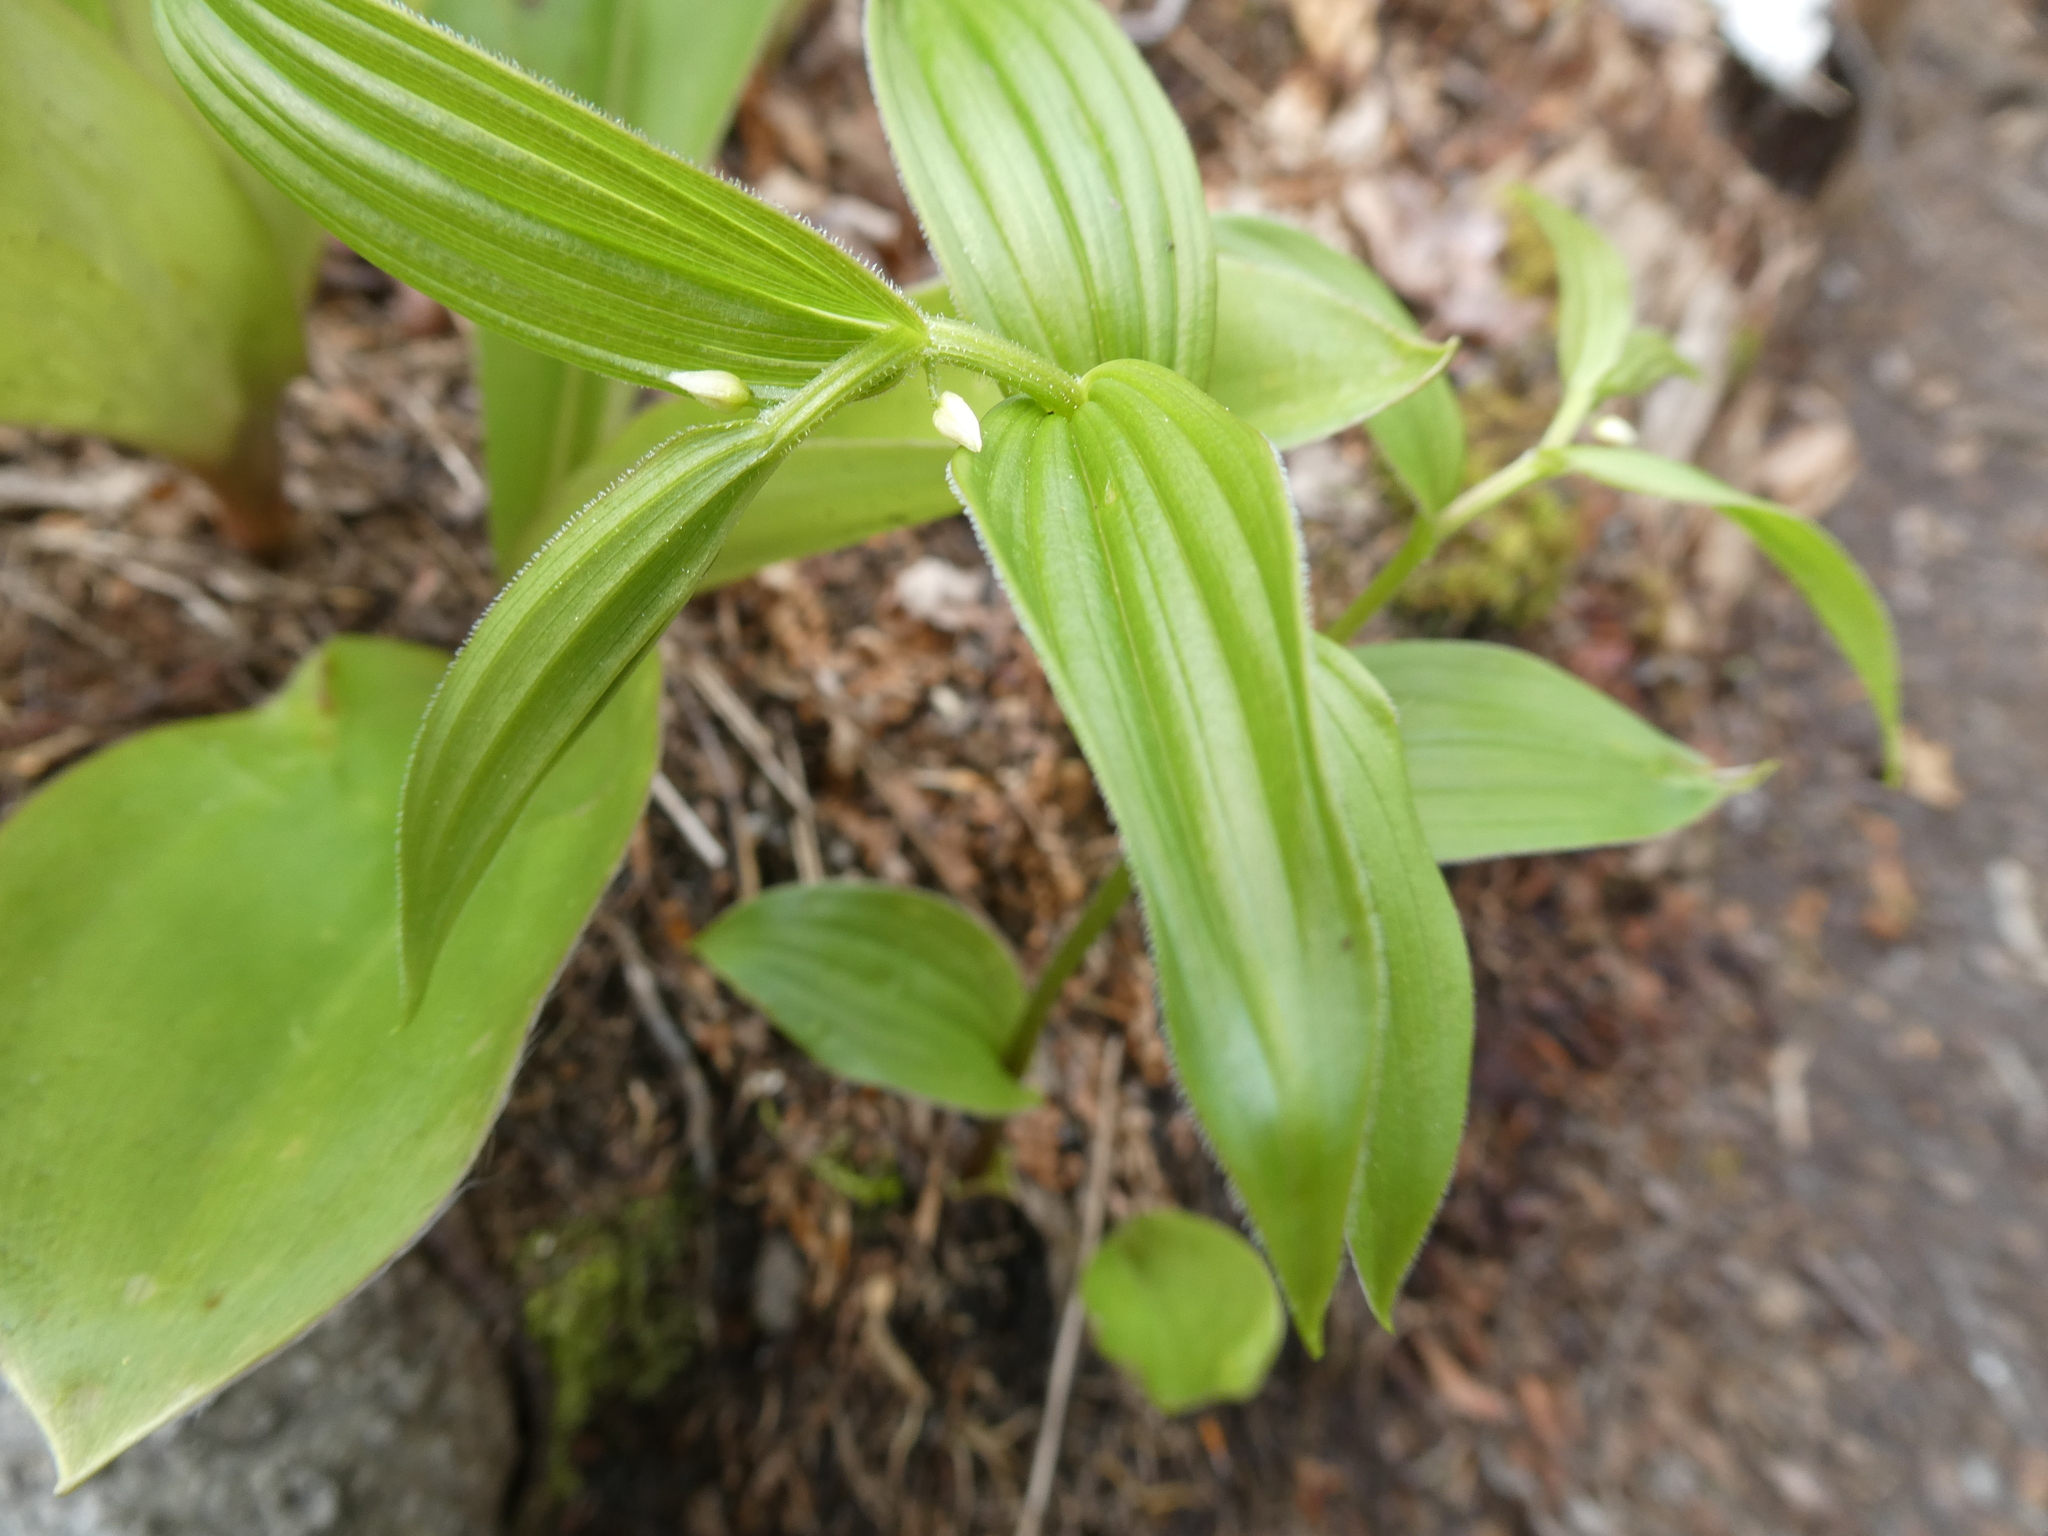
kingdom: Plantae
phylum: Tracheophyta
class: Liliopsida
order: Liliales
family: Liliaceae
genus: Streptopus
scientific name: Streptopus lanceolatus
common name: Rose mandarin
